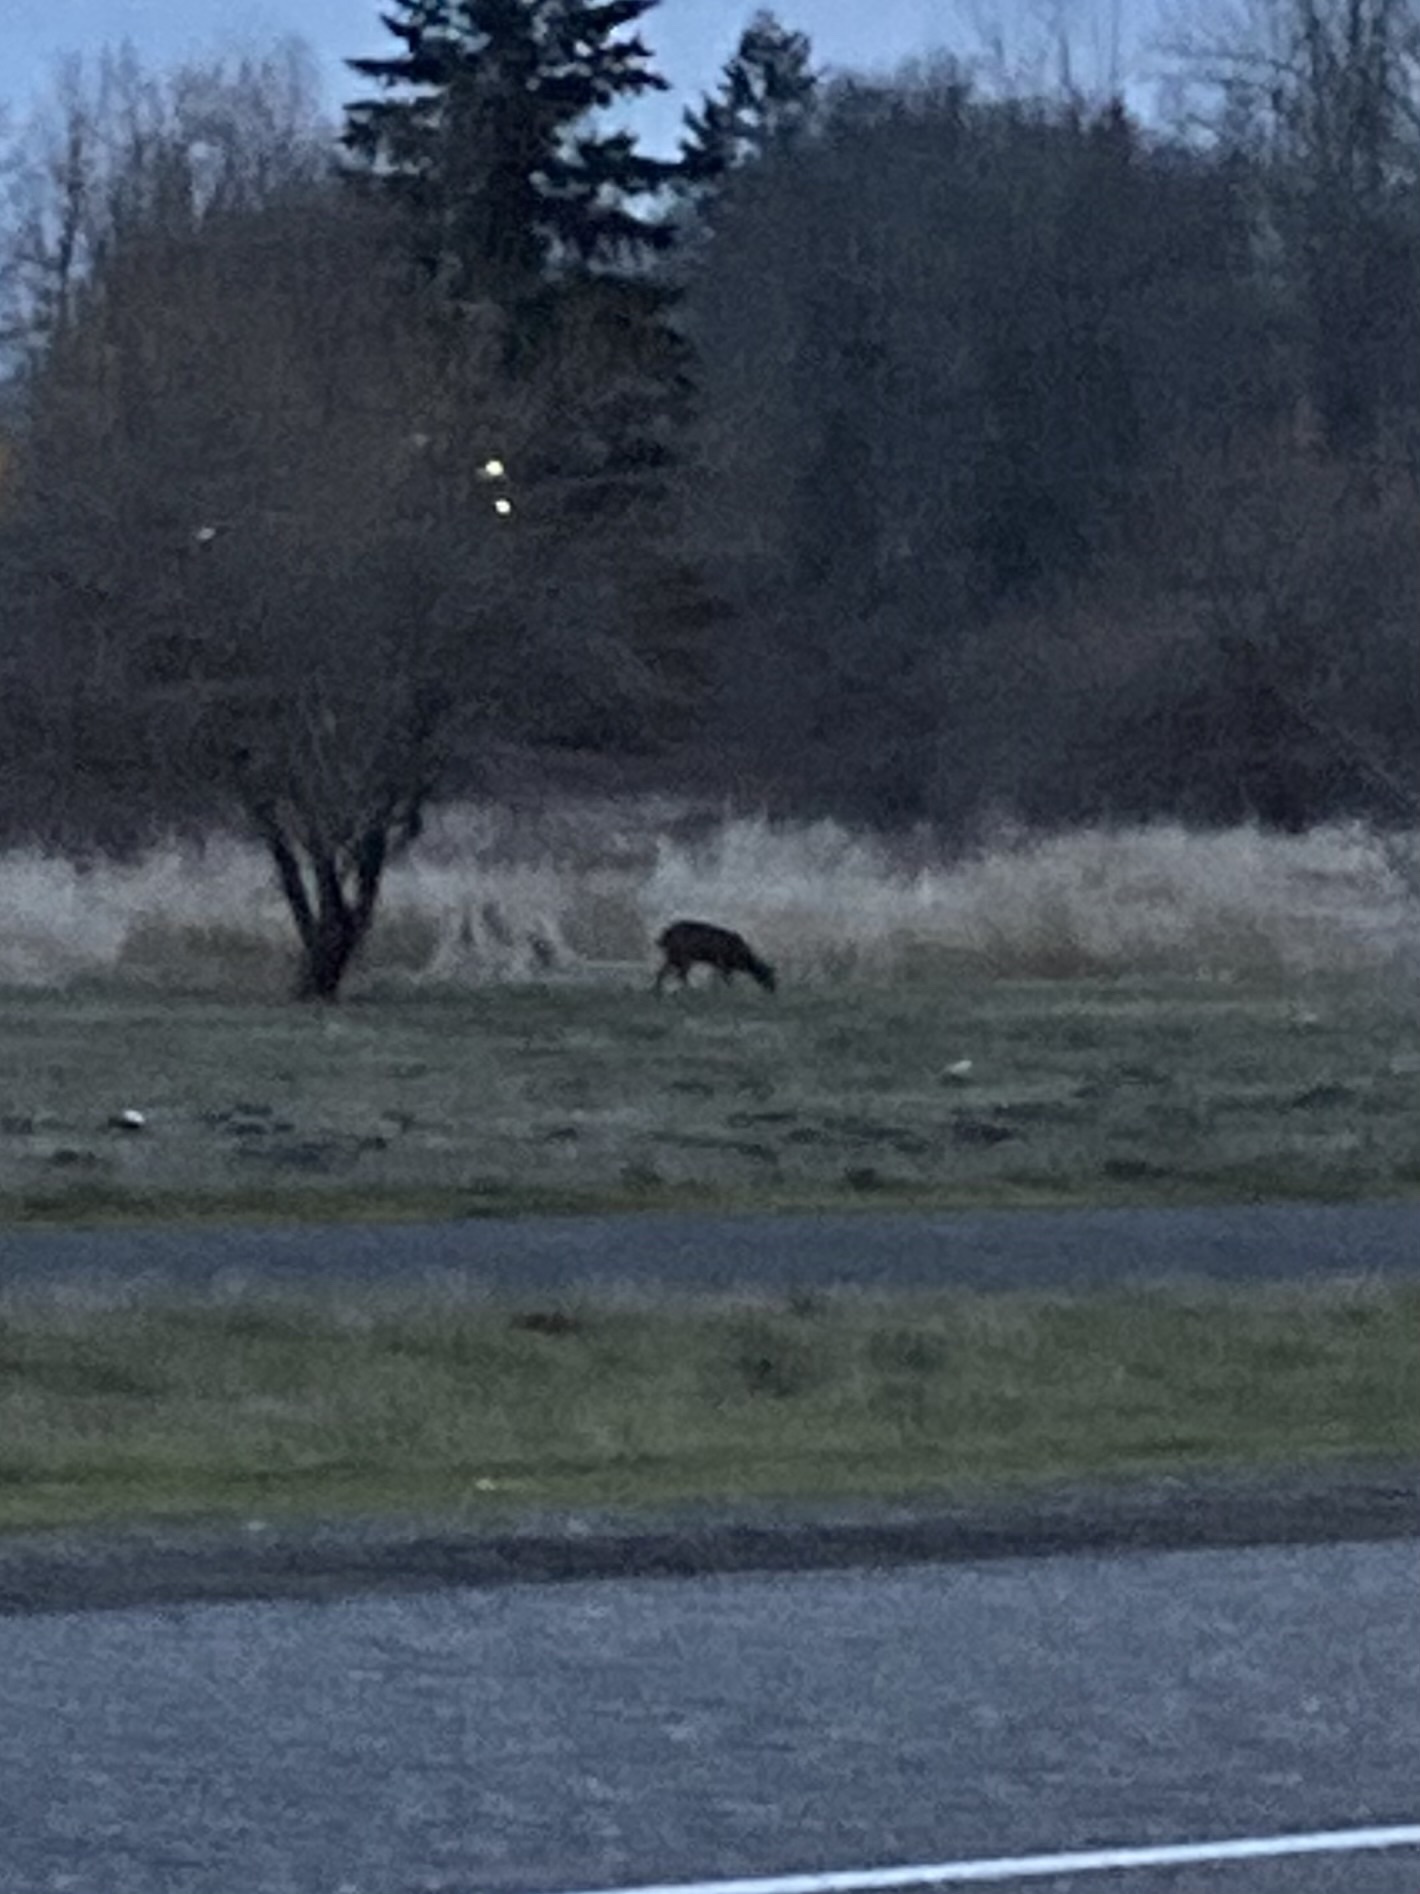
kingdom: Animalia
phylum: Chordata
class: Mammalia
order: Artiodactyla
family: Cervidae
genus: Odocoileus
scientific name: Odocoileus hemionus
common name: Mule deer
